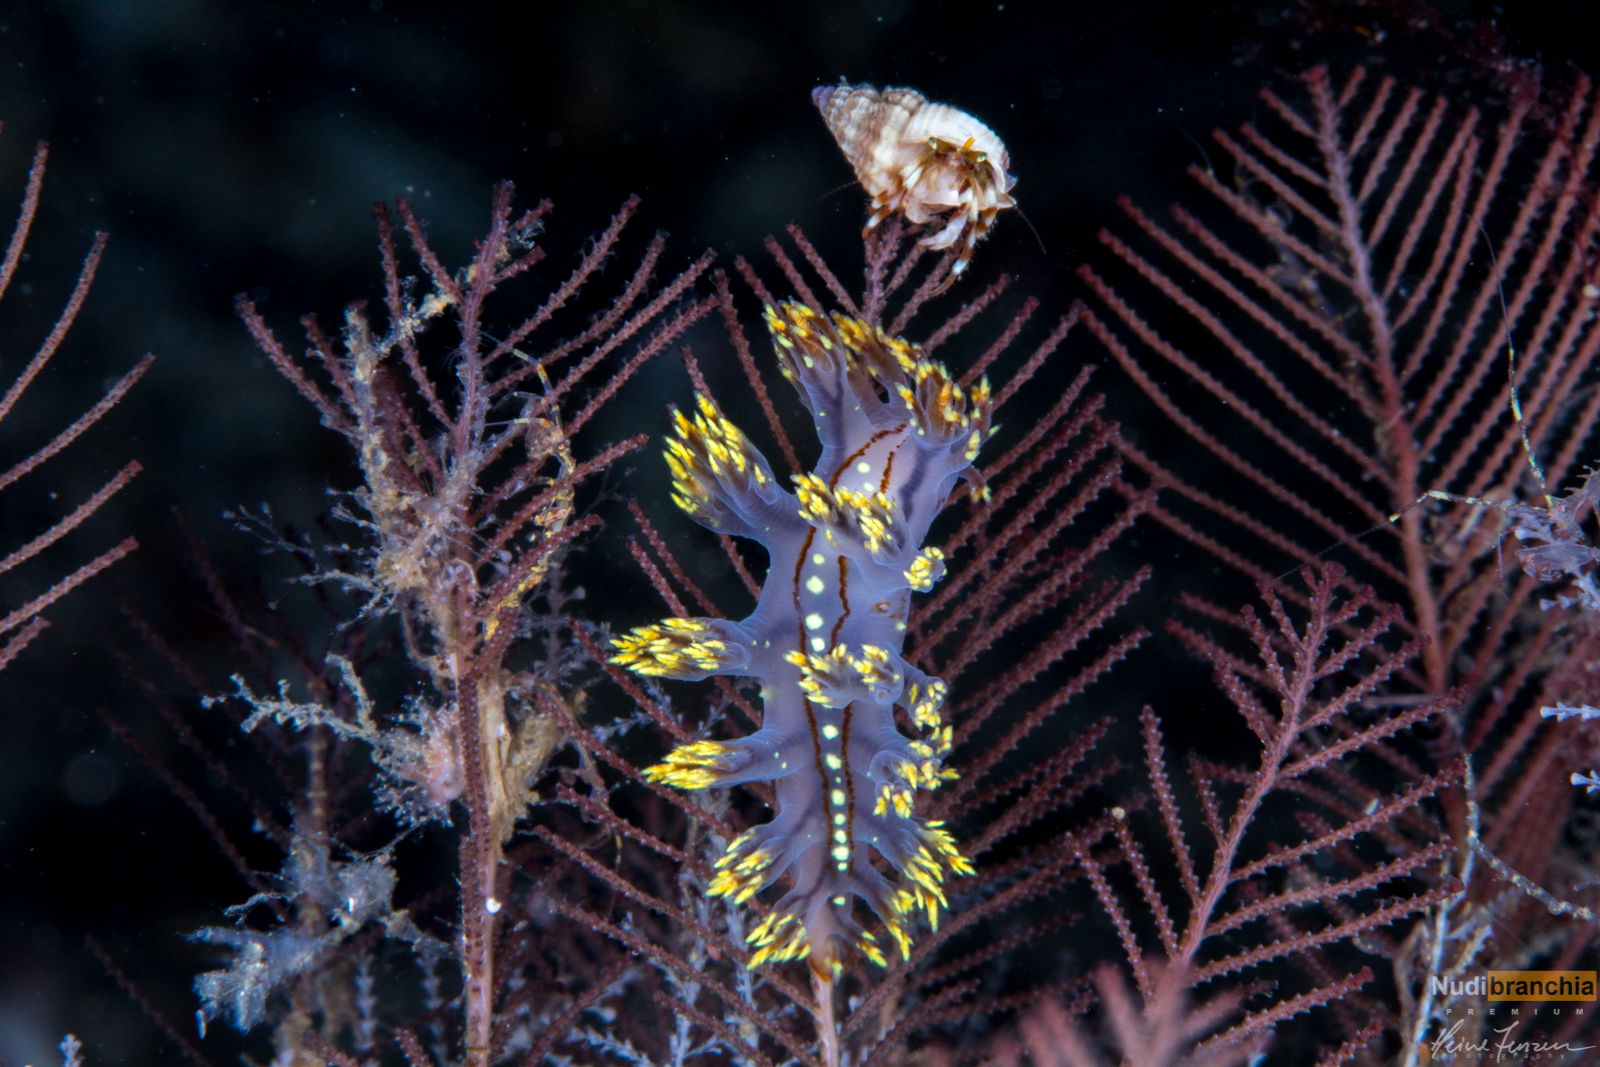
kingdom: Animalia
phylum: Mollusca
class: Gastropoda
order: Nudibranchia
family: Dendronotidae
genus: Dendronotus
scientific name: Dendronotus yrjargul
